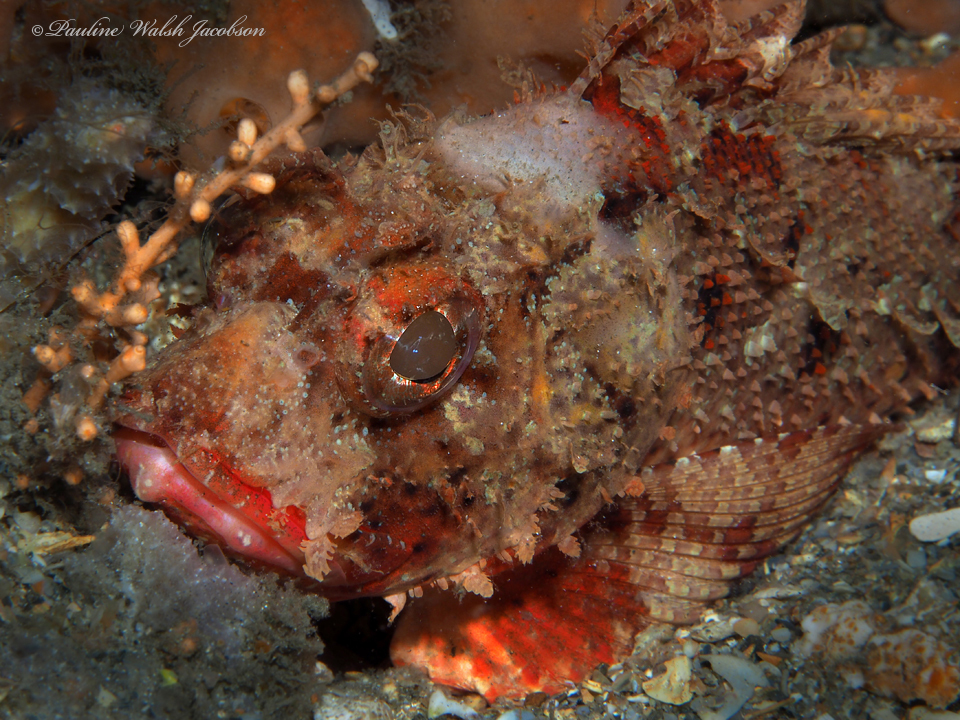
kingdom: Animalia
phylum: Chordata
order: Scorpaeniformes
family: Scorpaenidae
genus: Scorpaena
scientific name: Scorpaena brasiliensis
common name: Barbfish
